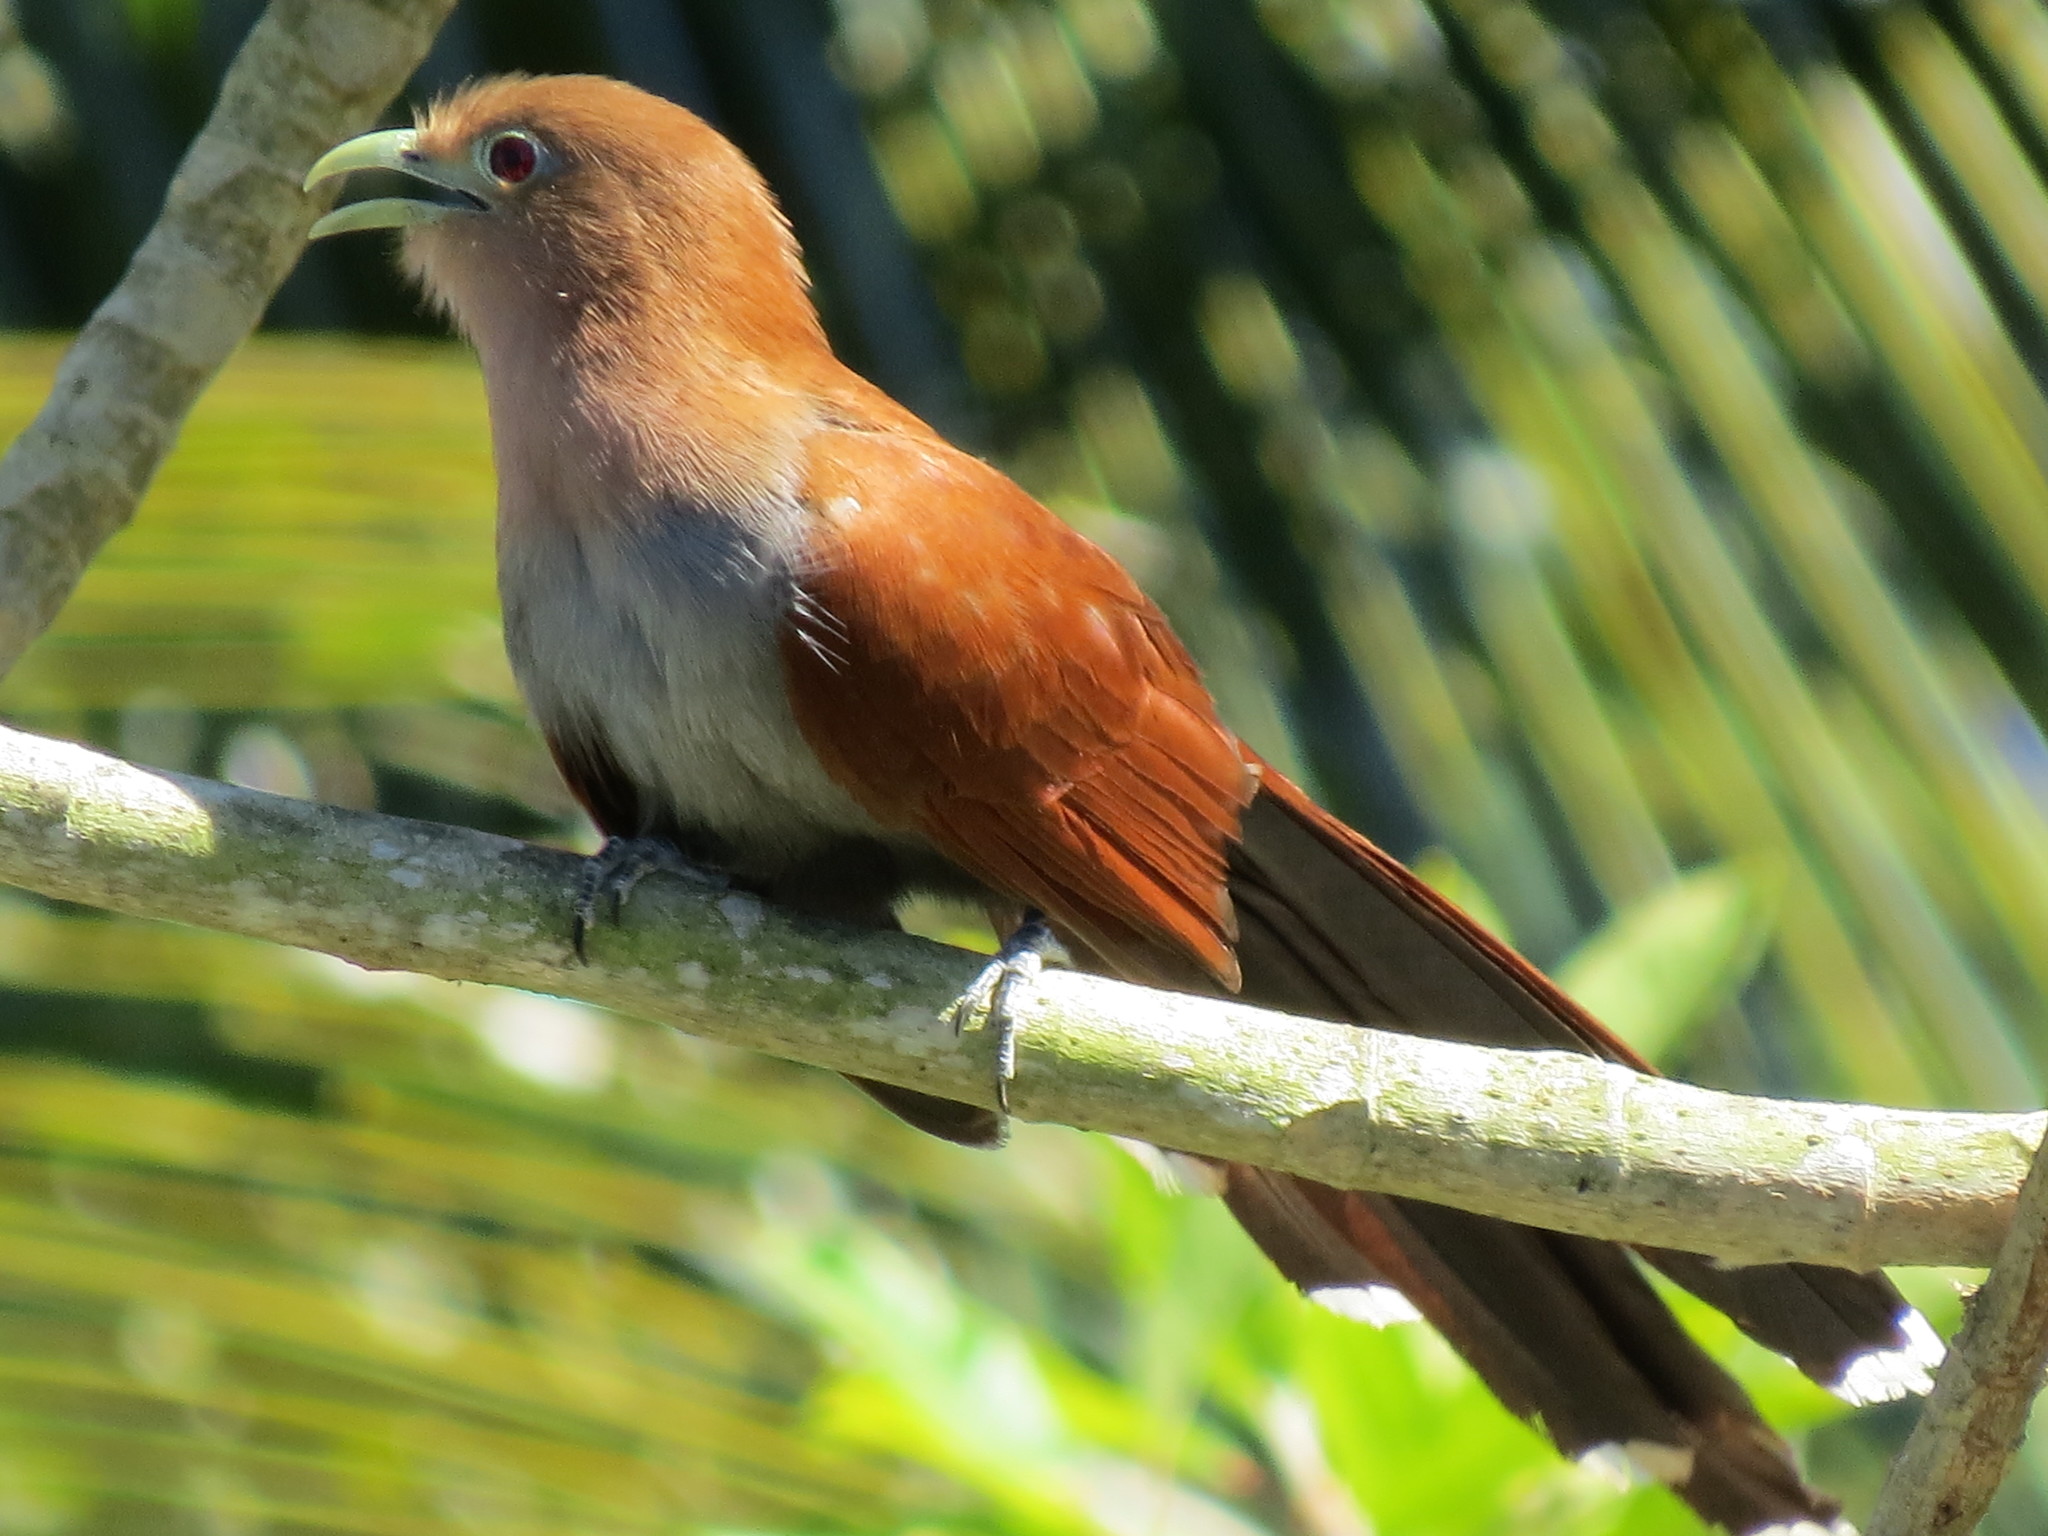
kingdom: Animalia
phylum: Chordata
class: Aves
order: Cuculiformes
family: Cuculidae
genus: Piaya
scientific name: Piaya cayana
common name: Squirrel cuckoo
